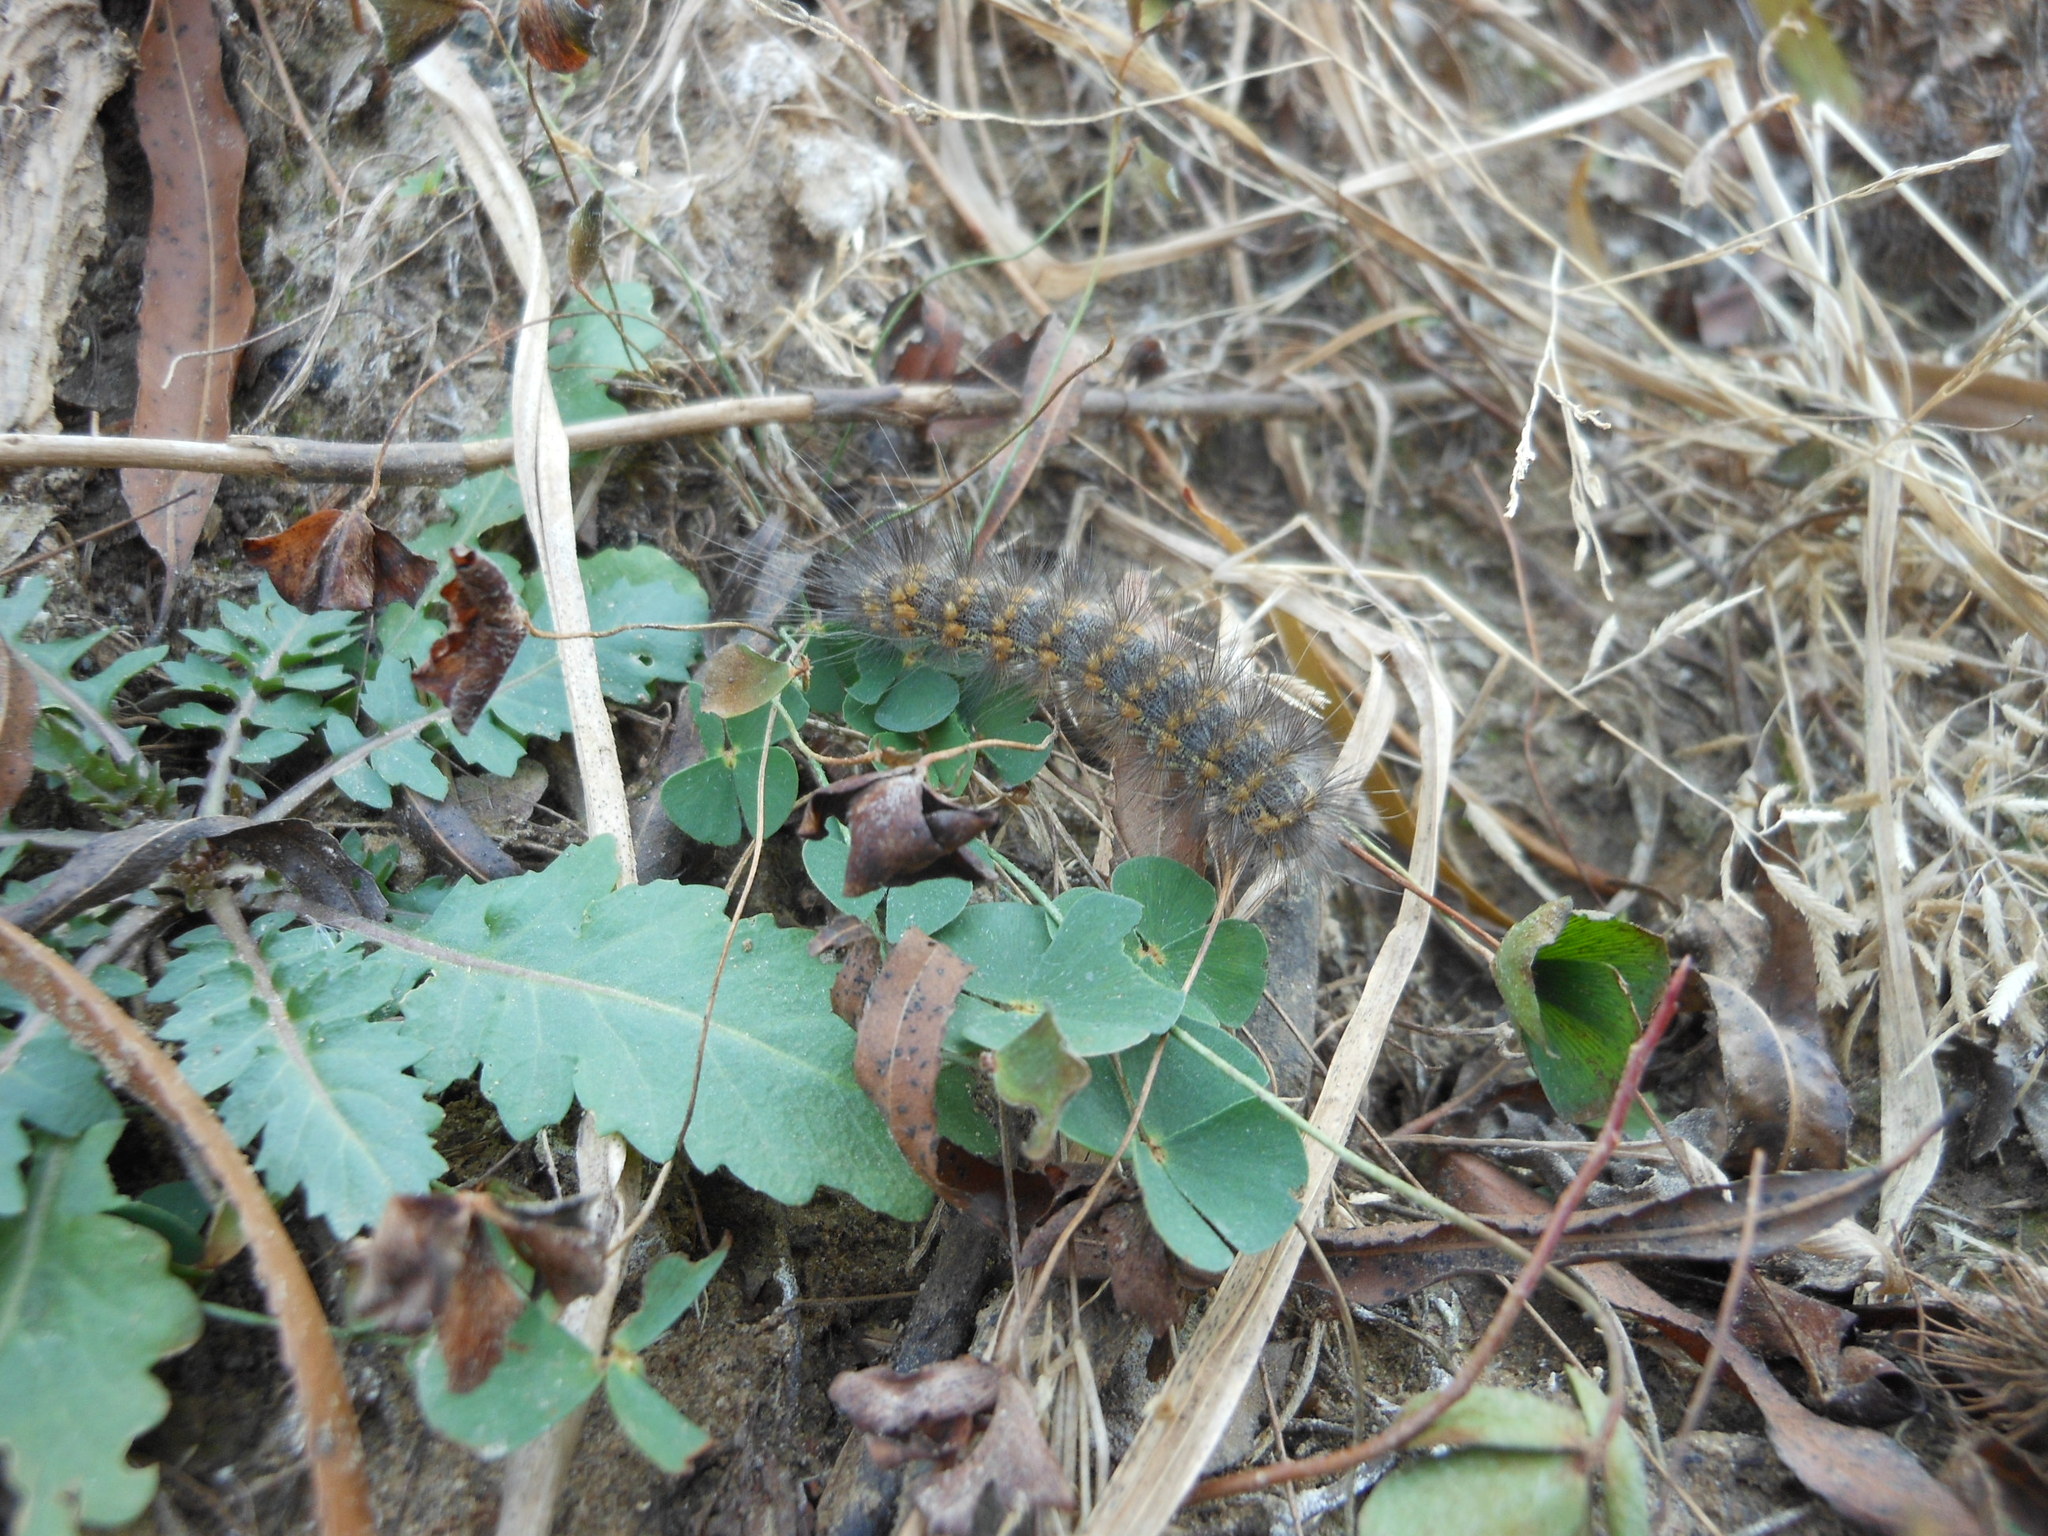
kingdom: Animalia
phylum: Arthropoda
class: Insecta
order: Lepidoptera
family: Erebidae
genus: Estigmene
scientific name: Estigmene acrea
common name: Salt marsh moth
